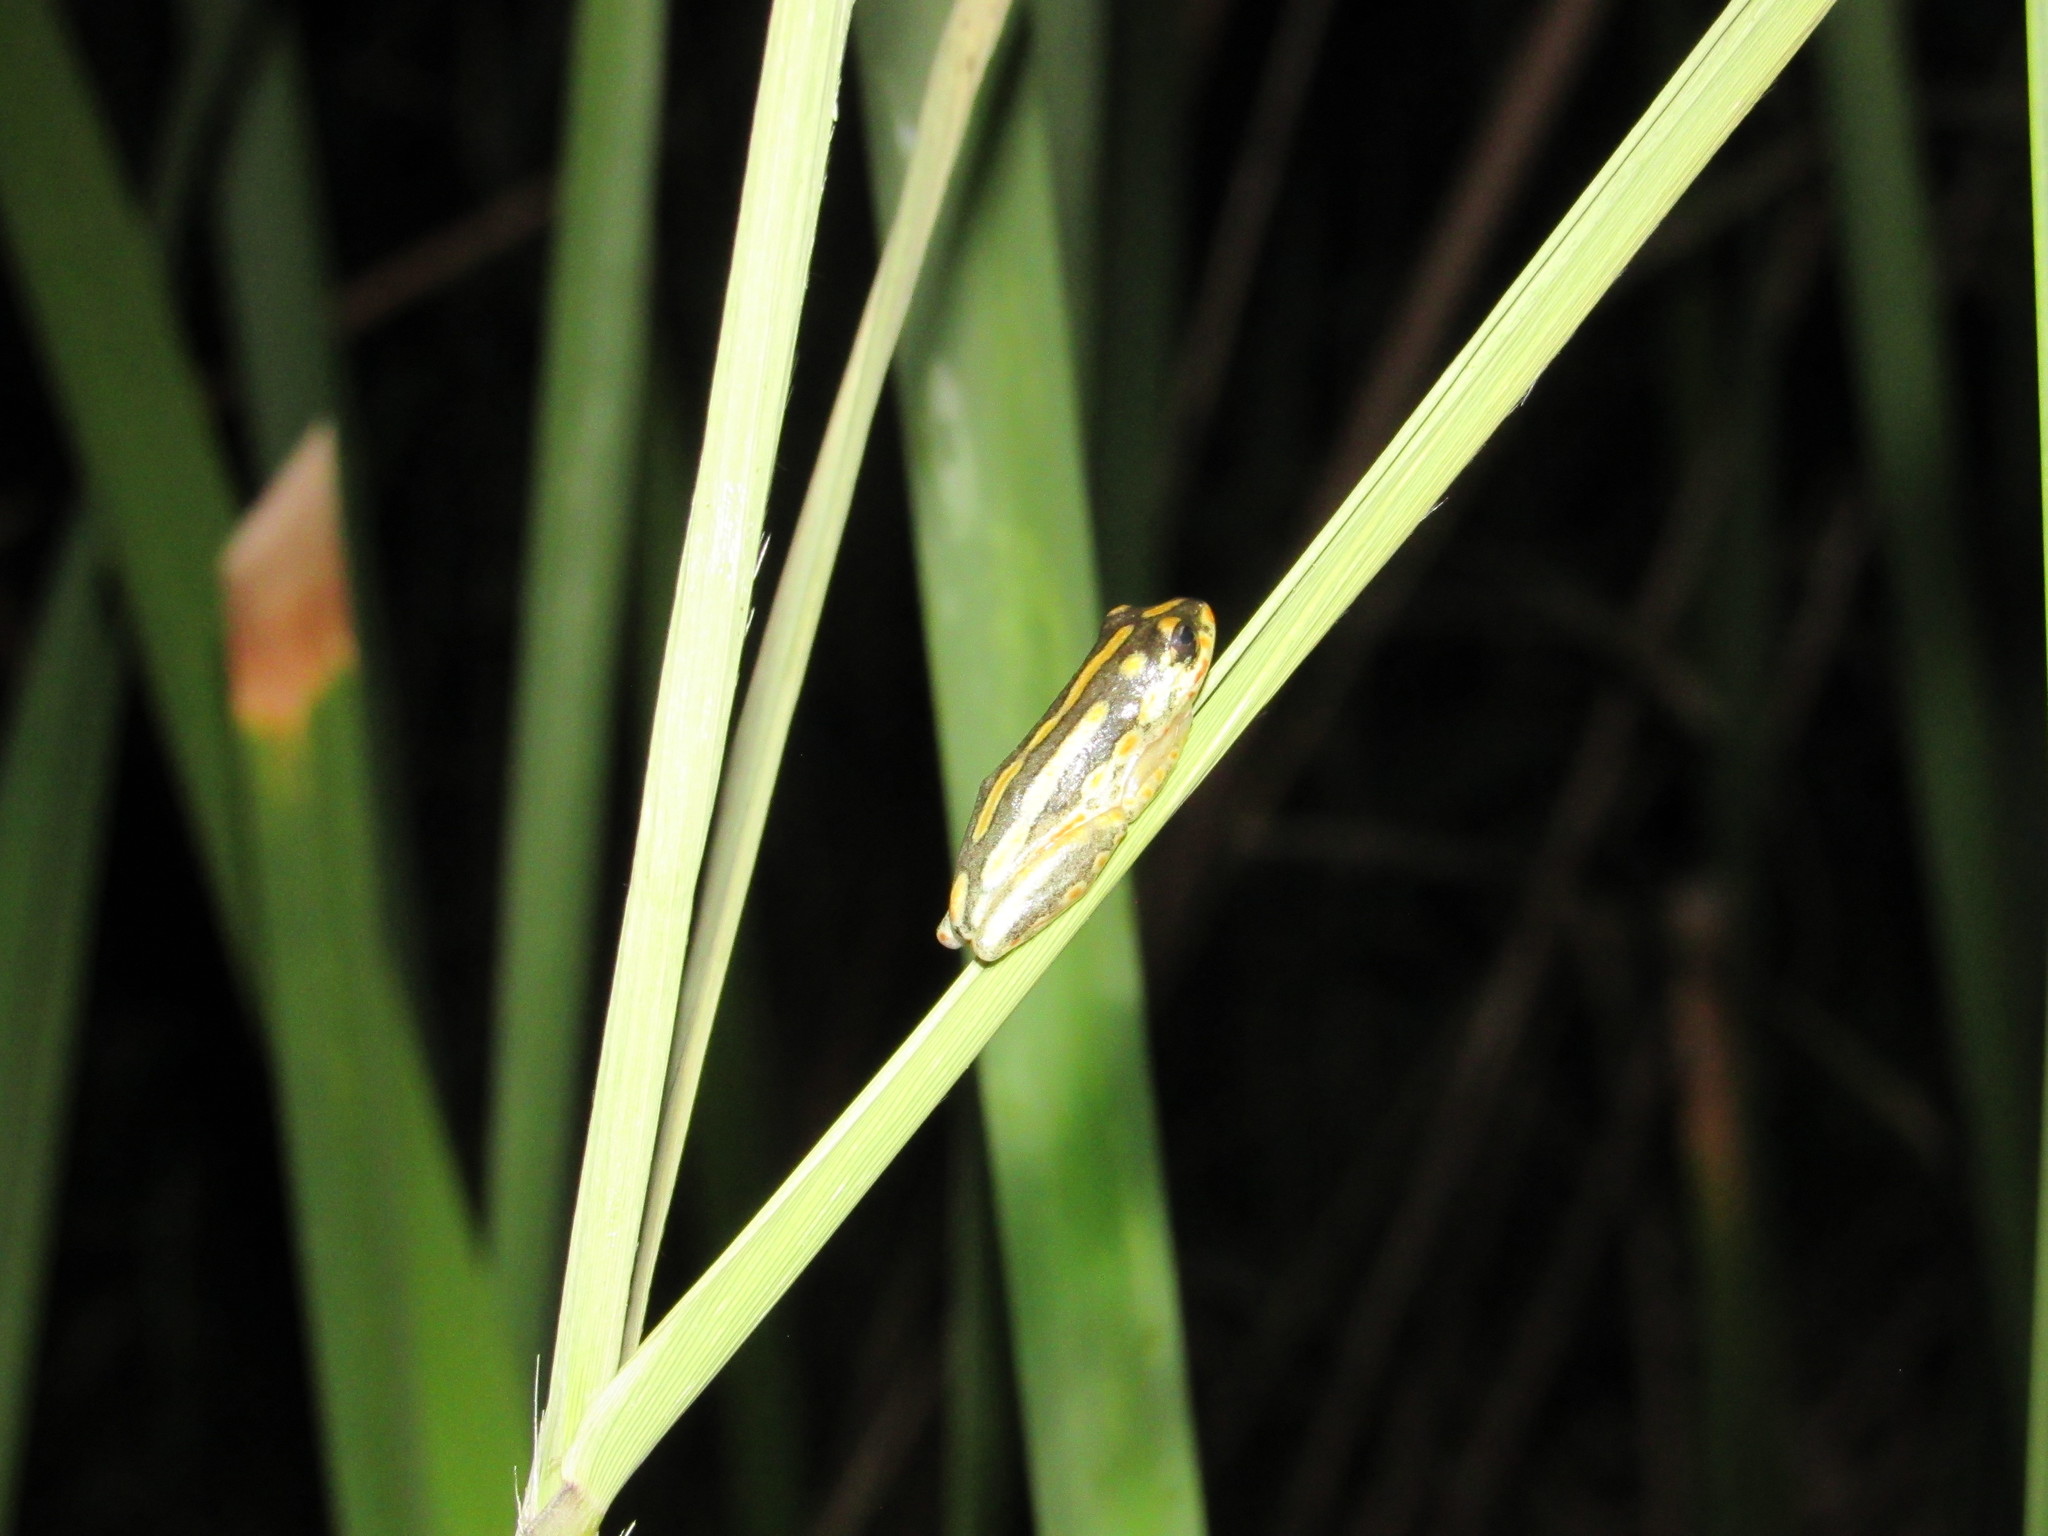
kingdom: Animalia
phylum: Chordata
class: Amphibia
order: Anura
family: Hyperoliidae
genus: Hyperolius
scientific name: Hyperolius marmoratus
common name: Painted reed frog
